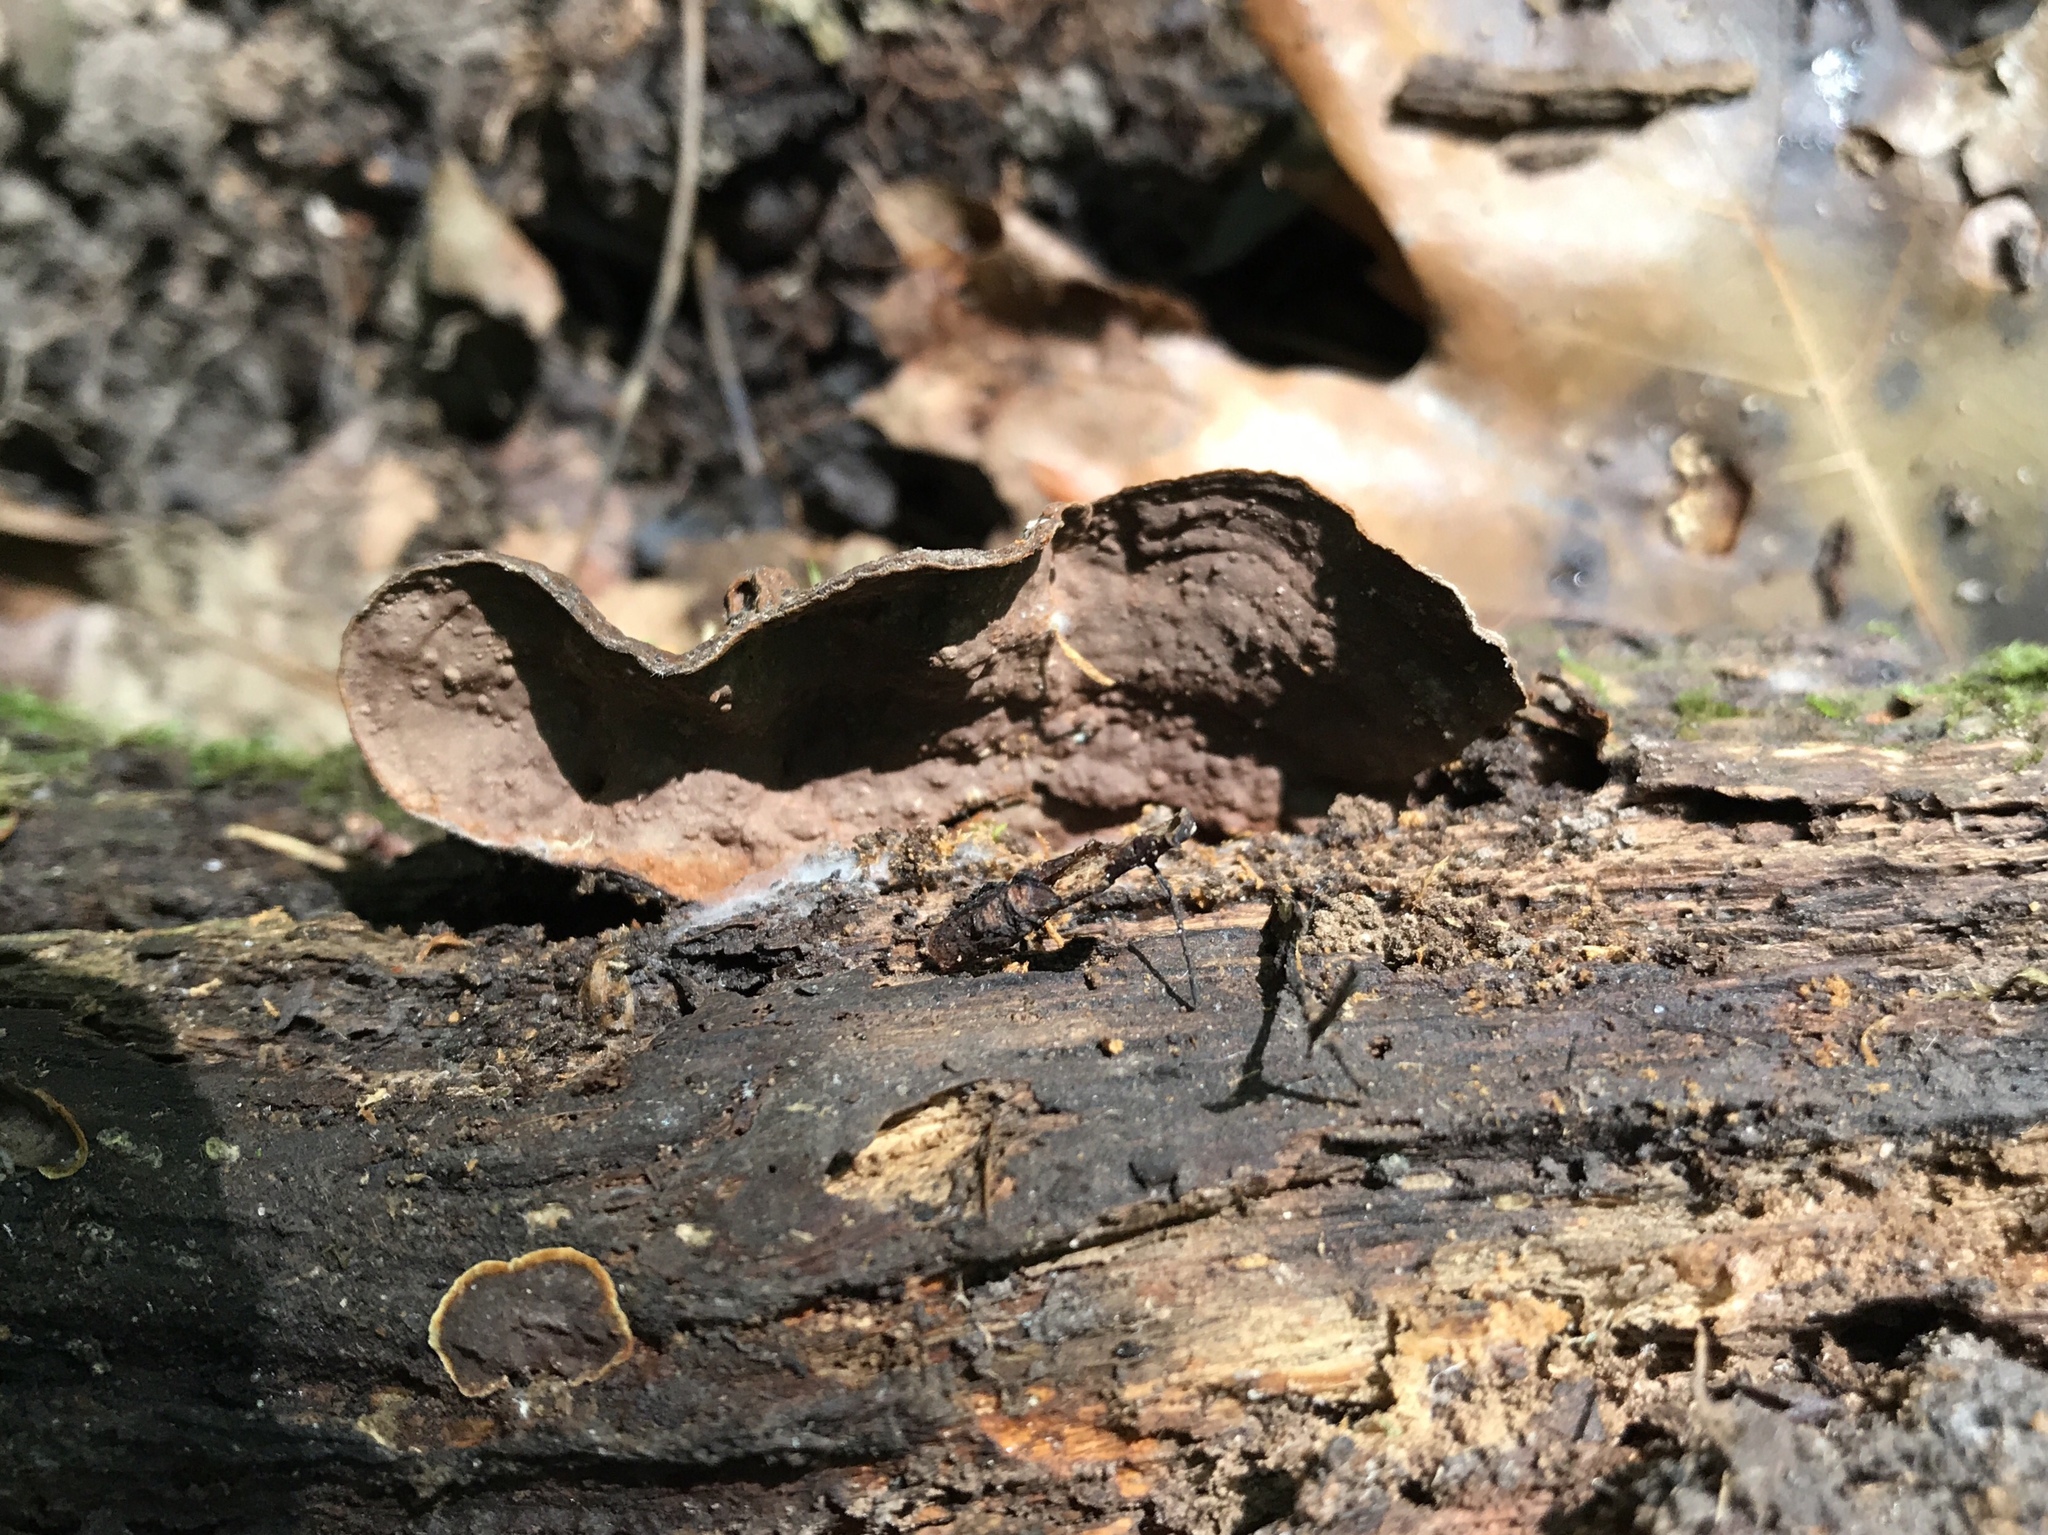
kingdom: Fungi
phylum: Basidiomycota
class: Agaricomycetes
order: Hymenochaetales
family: Hymenochaetaceae
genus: Hymenochaete
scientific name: Hymenochaete rubiginosa
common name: Oak curtain crust
